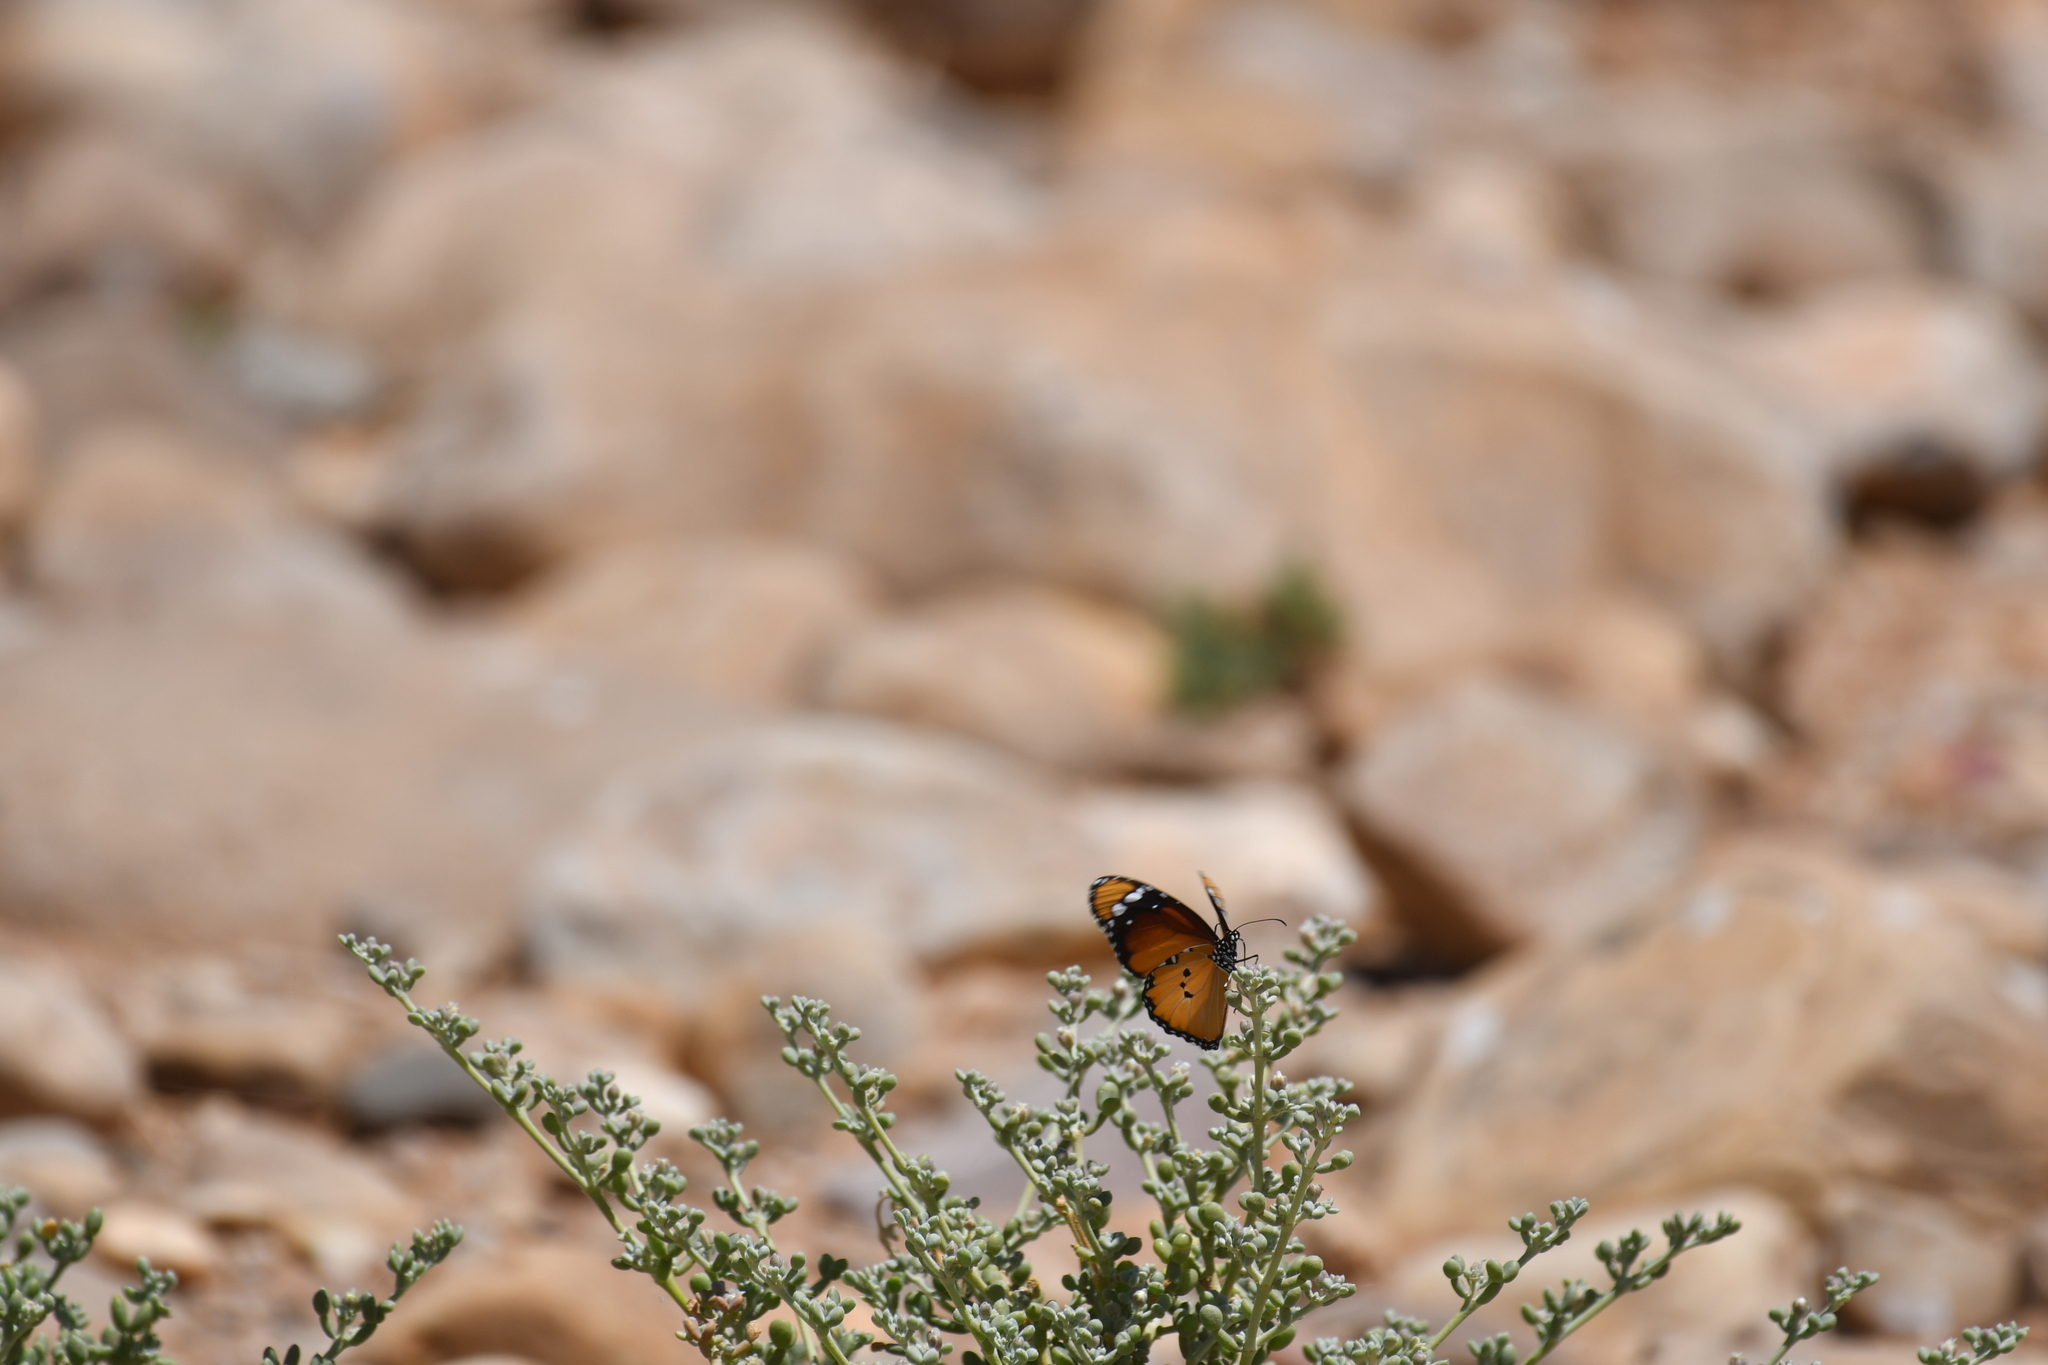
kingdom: Animalia
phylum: Arthropoda
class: Insecta
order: Lepidoptera
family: Nymphalidae
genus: Danaus
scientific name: Danaus chrysippus
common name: Plain tiger
